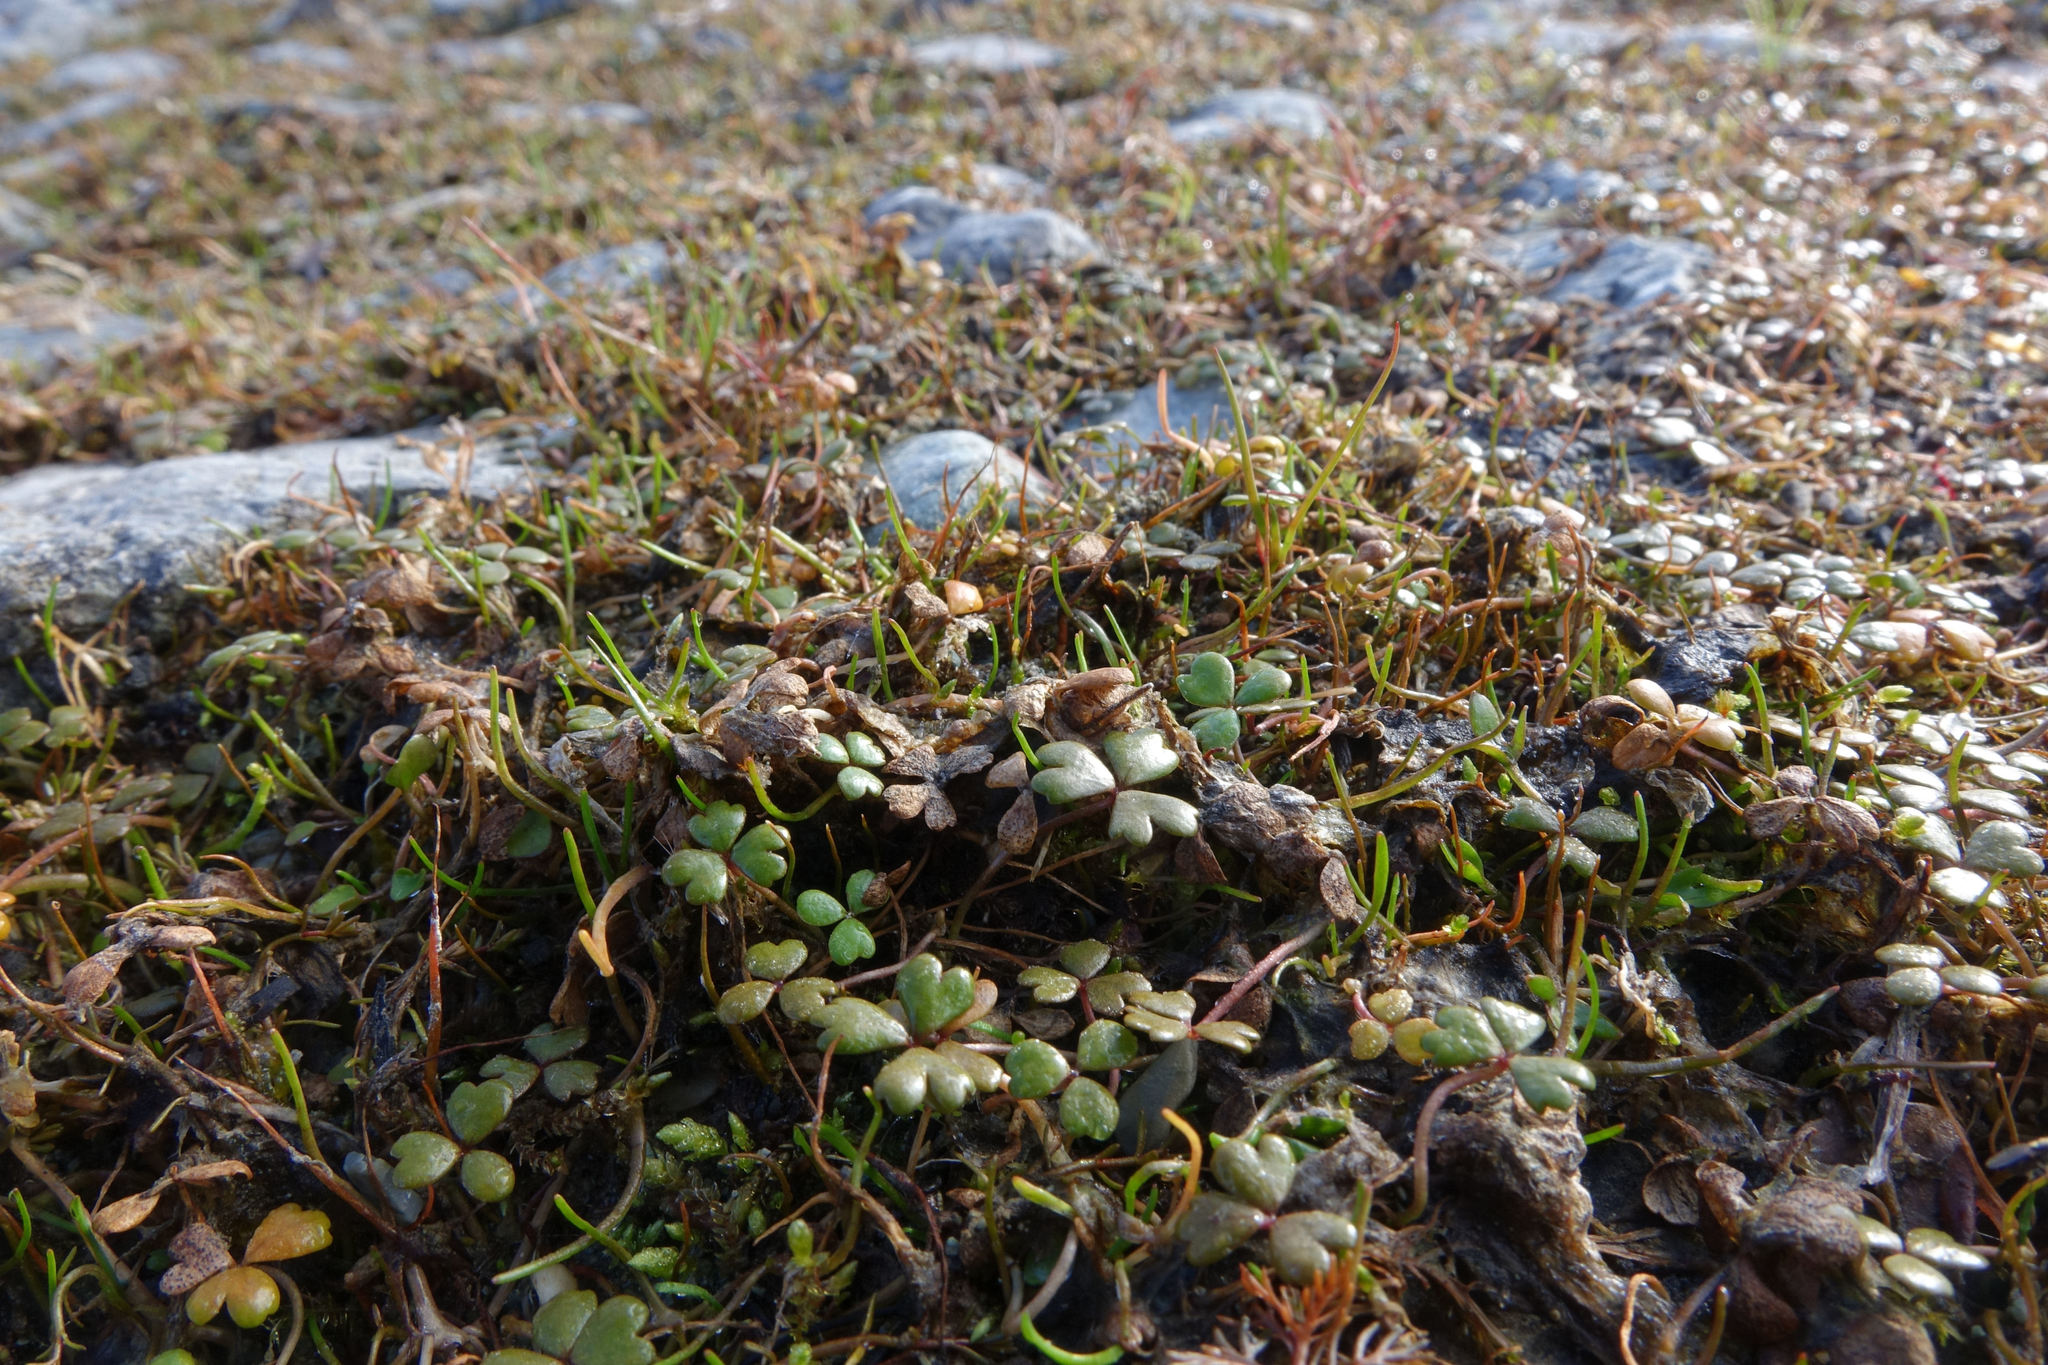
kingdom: Plantae
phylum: Tracheophyta
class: Magnoliopsida
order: Apiales
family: Araliaceae
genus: Hydrocotyle
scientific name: Hydrocotyle sulcata
